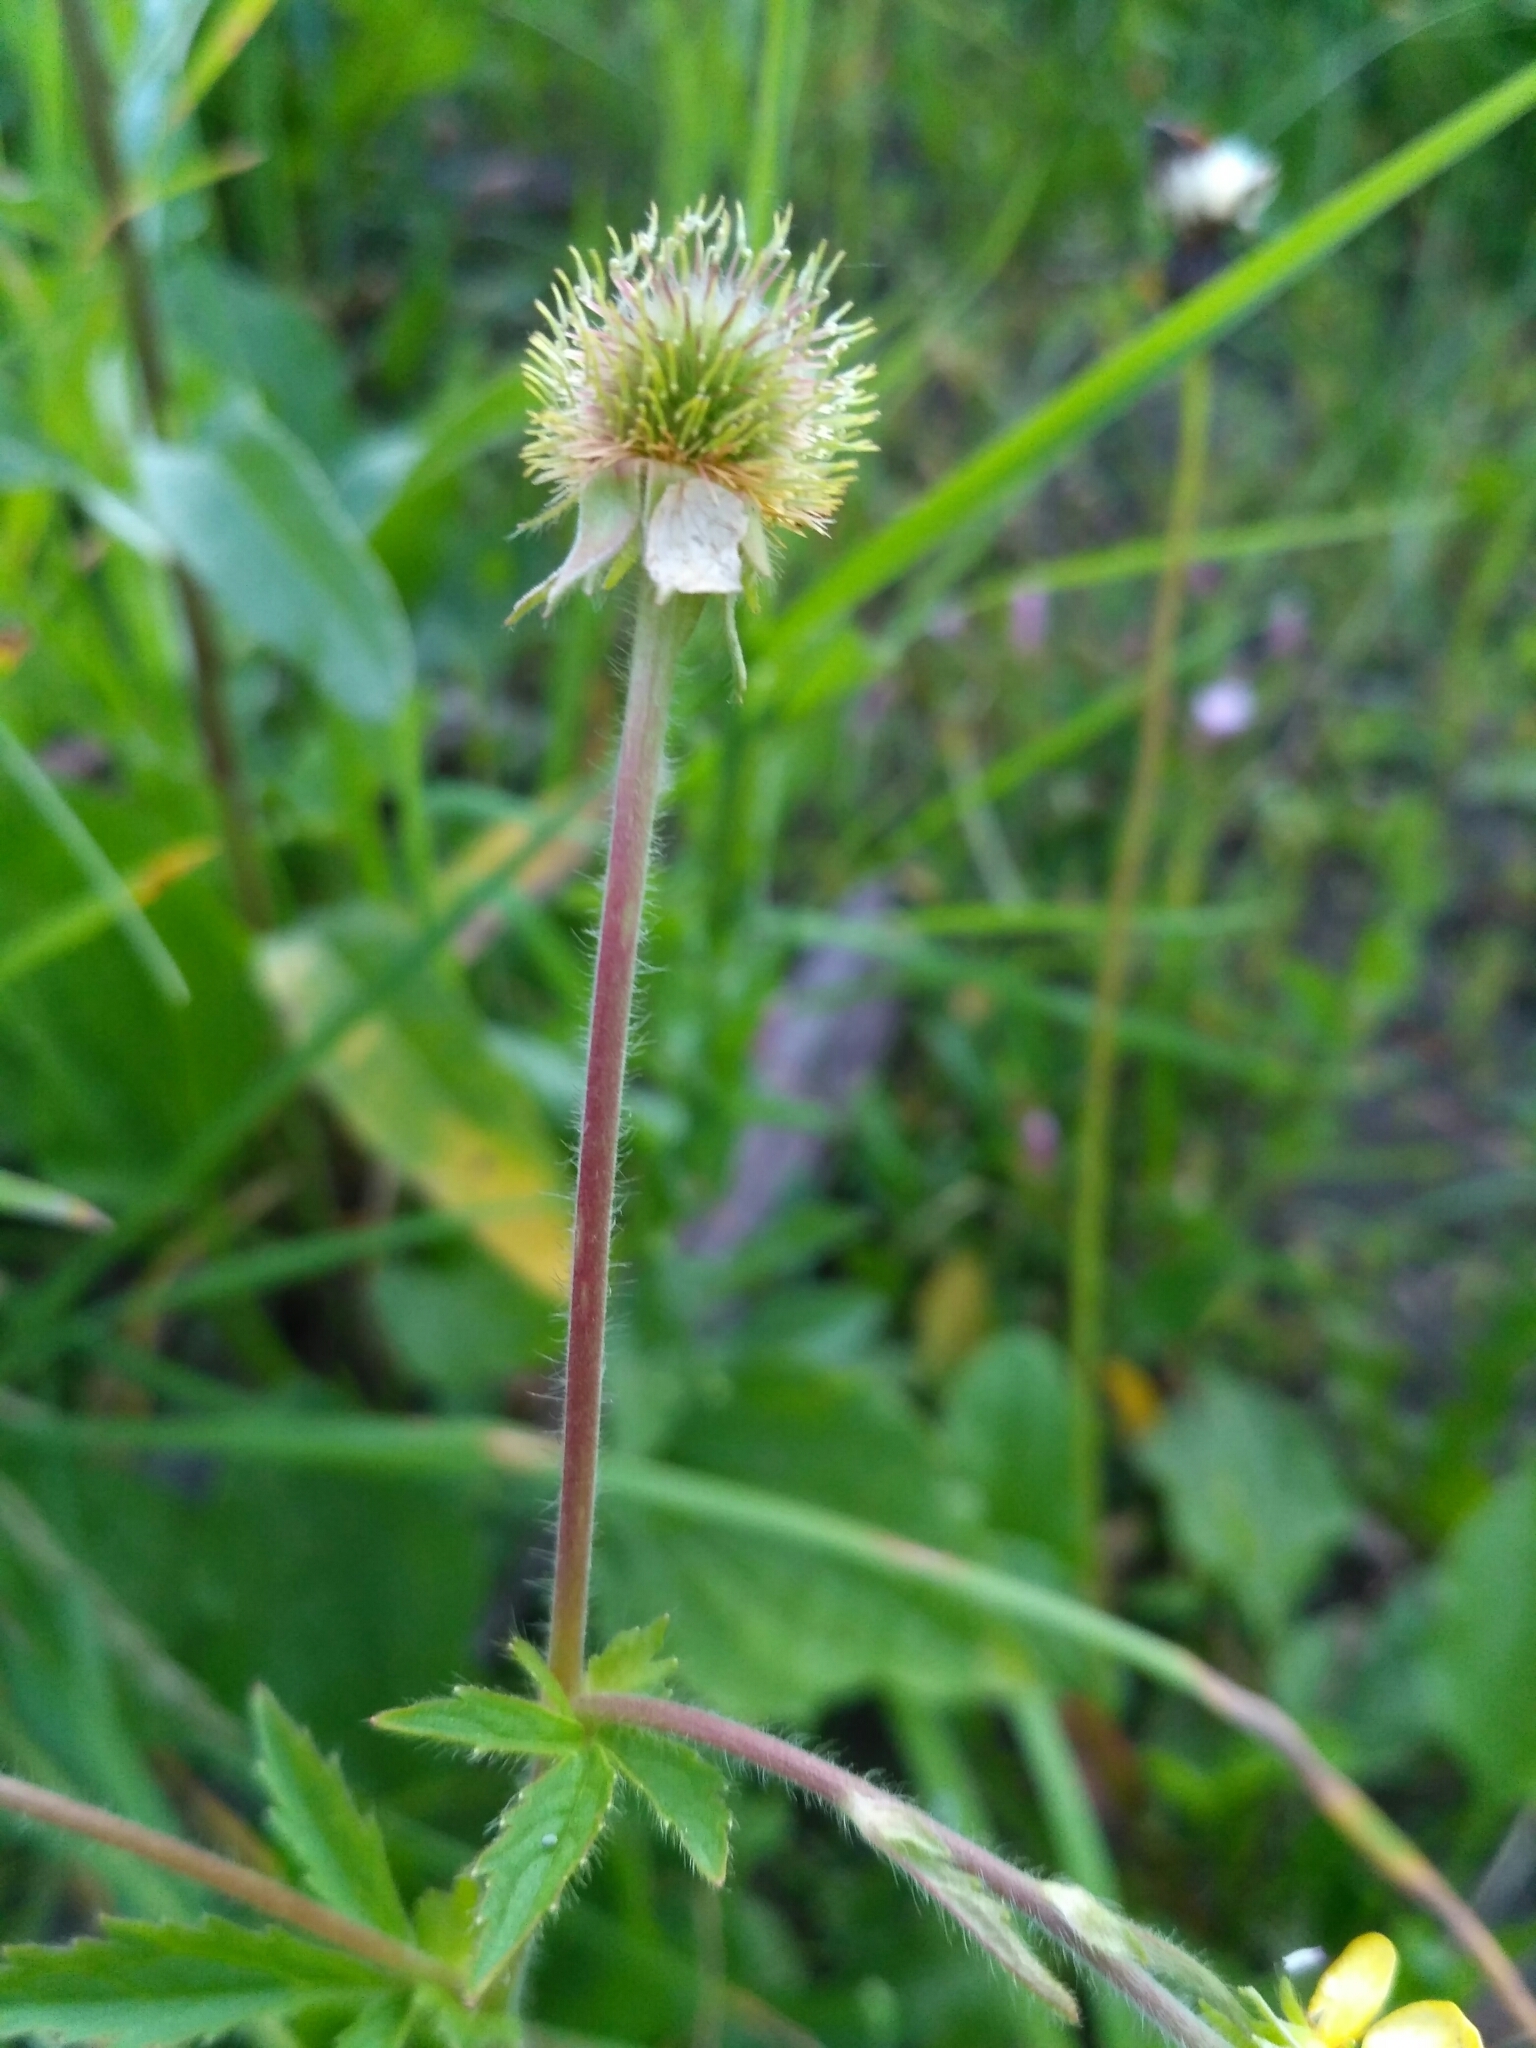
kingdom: Plantae
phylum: Tracheophyta
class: Magnoliopsida
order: Rosales
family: Rosaceae
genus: Geum
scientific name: Geum aleppicum
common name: Yellow avens
